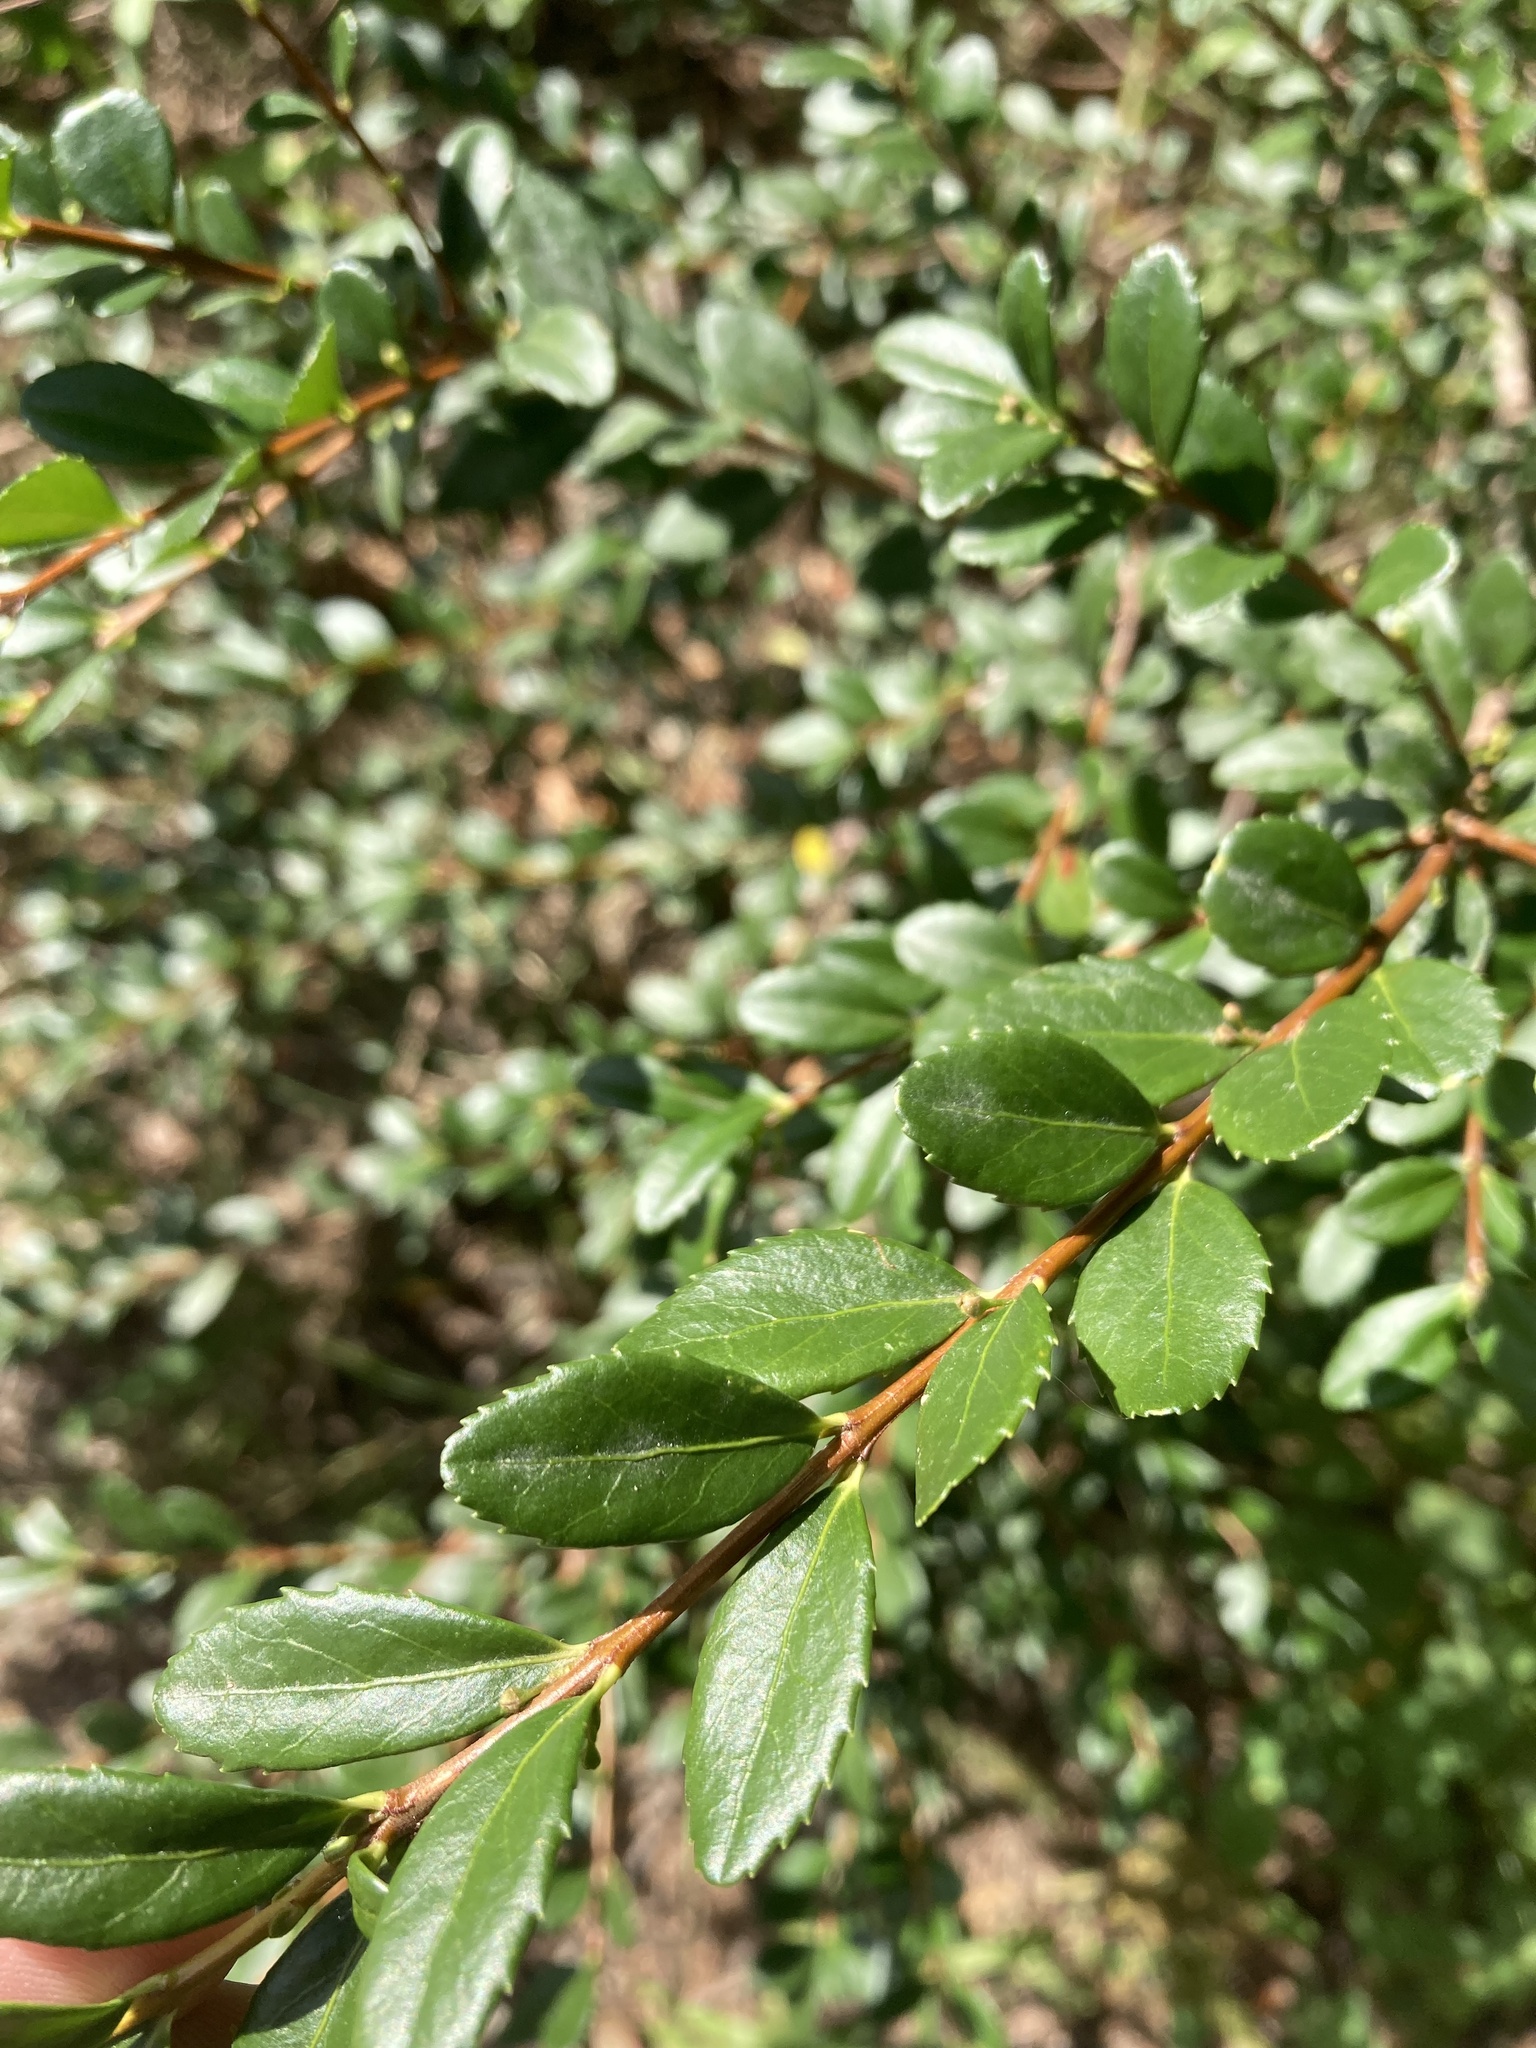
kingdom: Plantae
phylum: Tracheophyta
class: Magnoliopsida
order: Celastrales
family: Celastraceae
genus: Paxistima
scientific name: Paxistima myrsinites
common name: Mountain-lover
